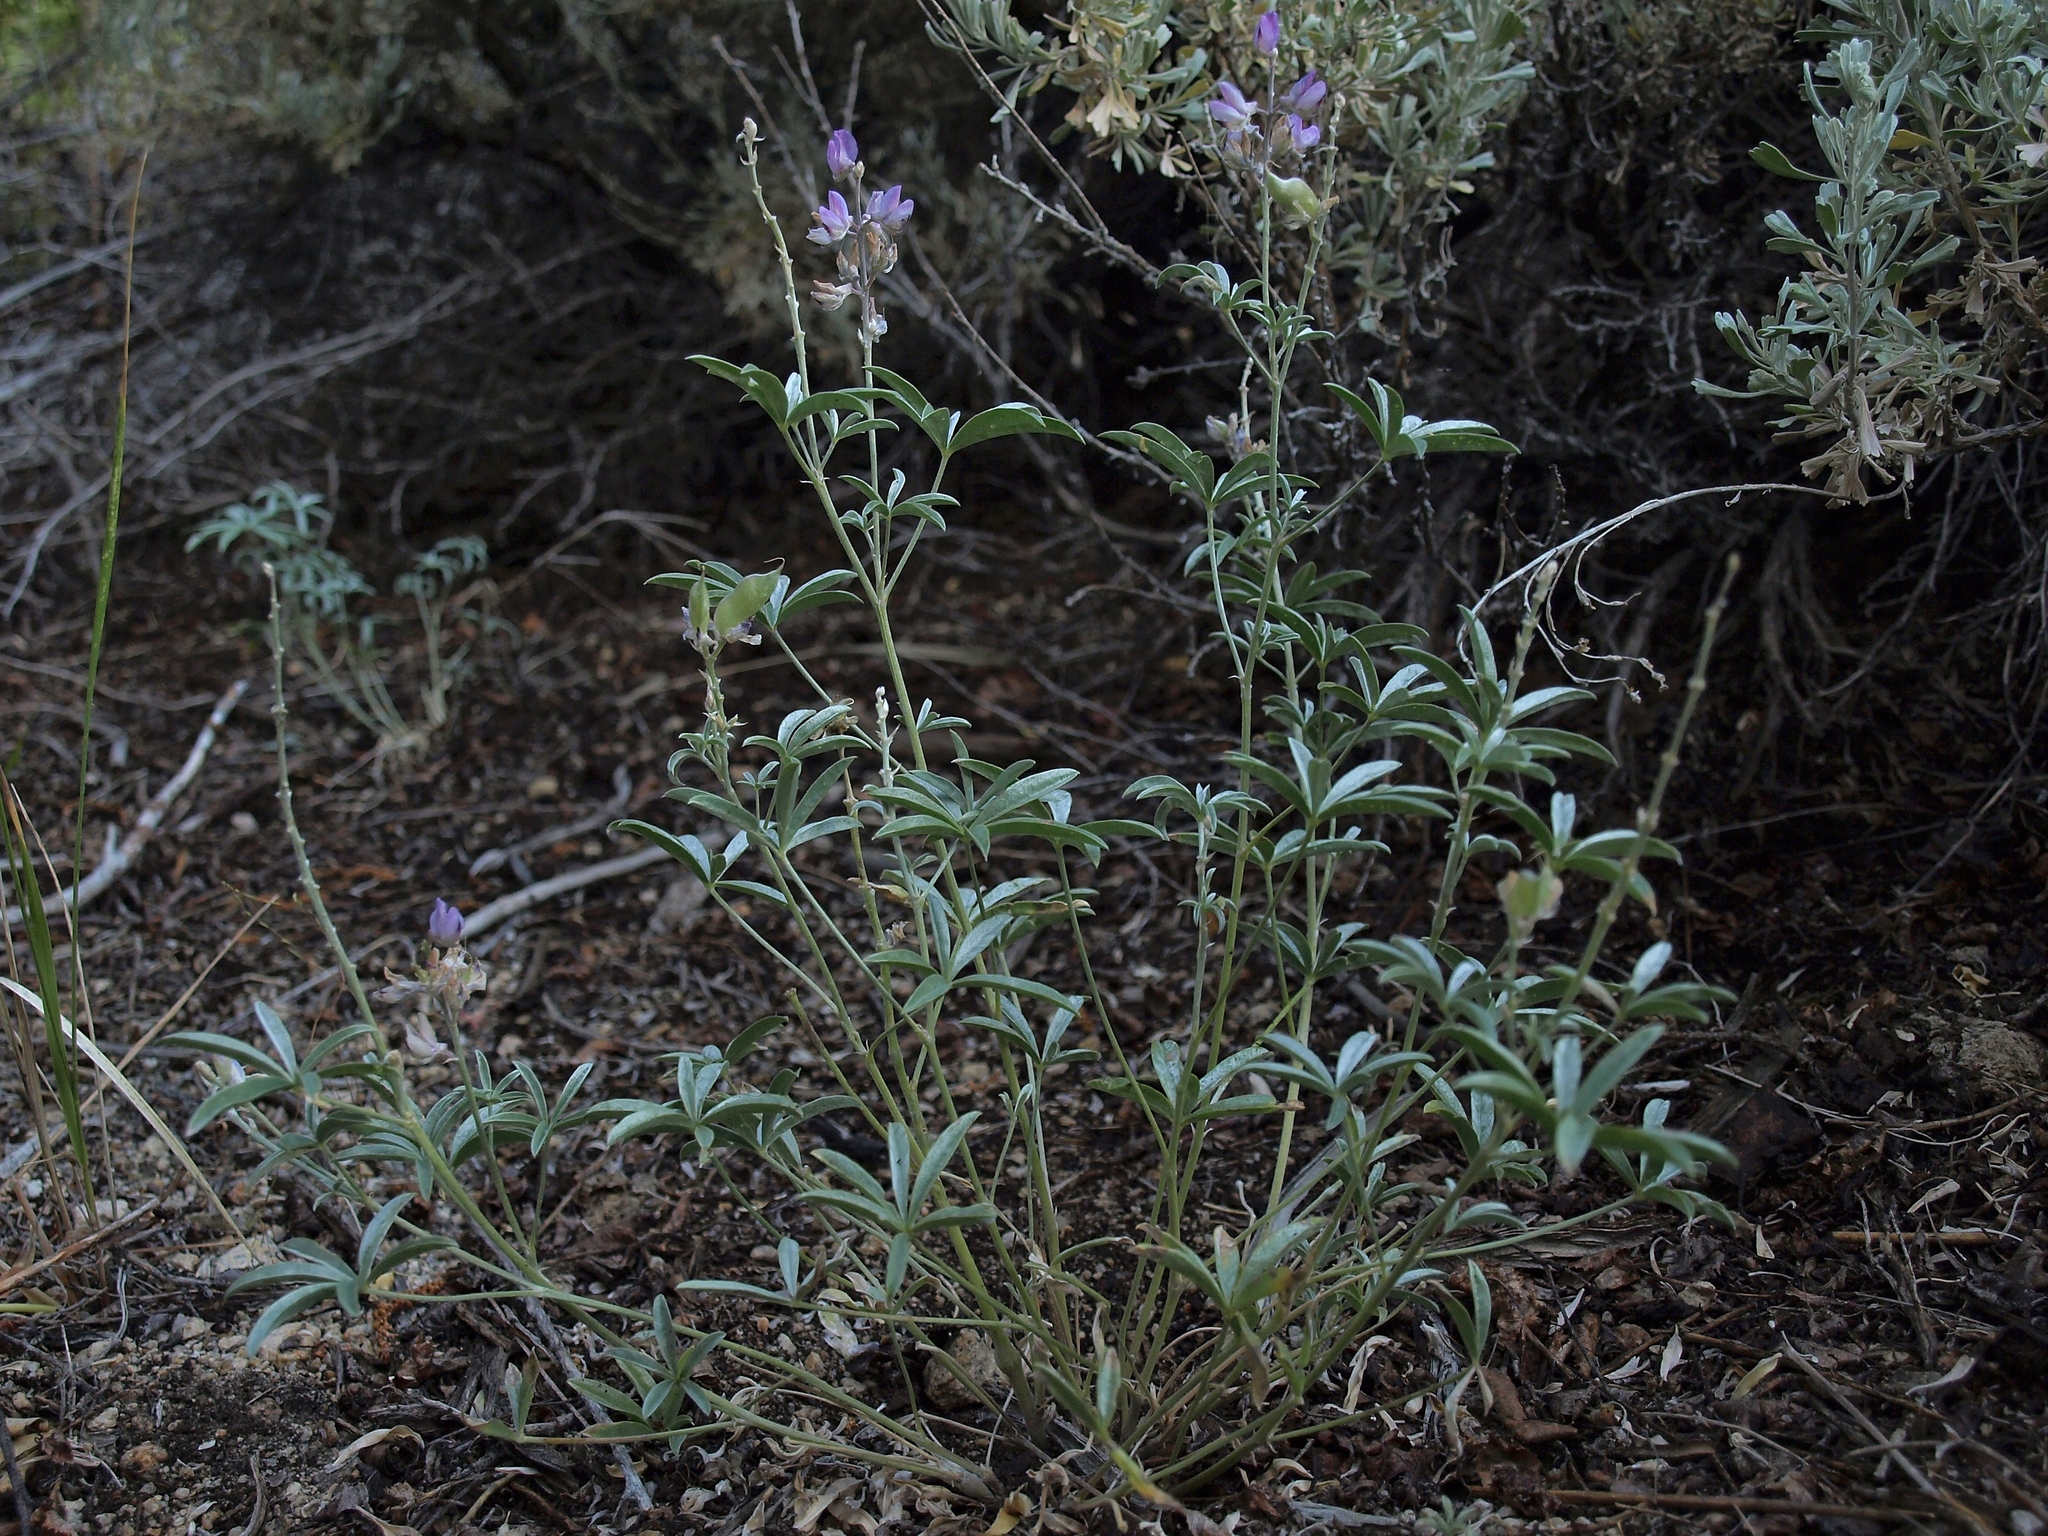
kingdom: Plantae
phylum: Tracheophyta
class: Magnoliopsida
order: Fabales
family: Fabaceae
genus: Lupinus
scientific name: Lupinus caudatus
